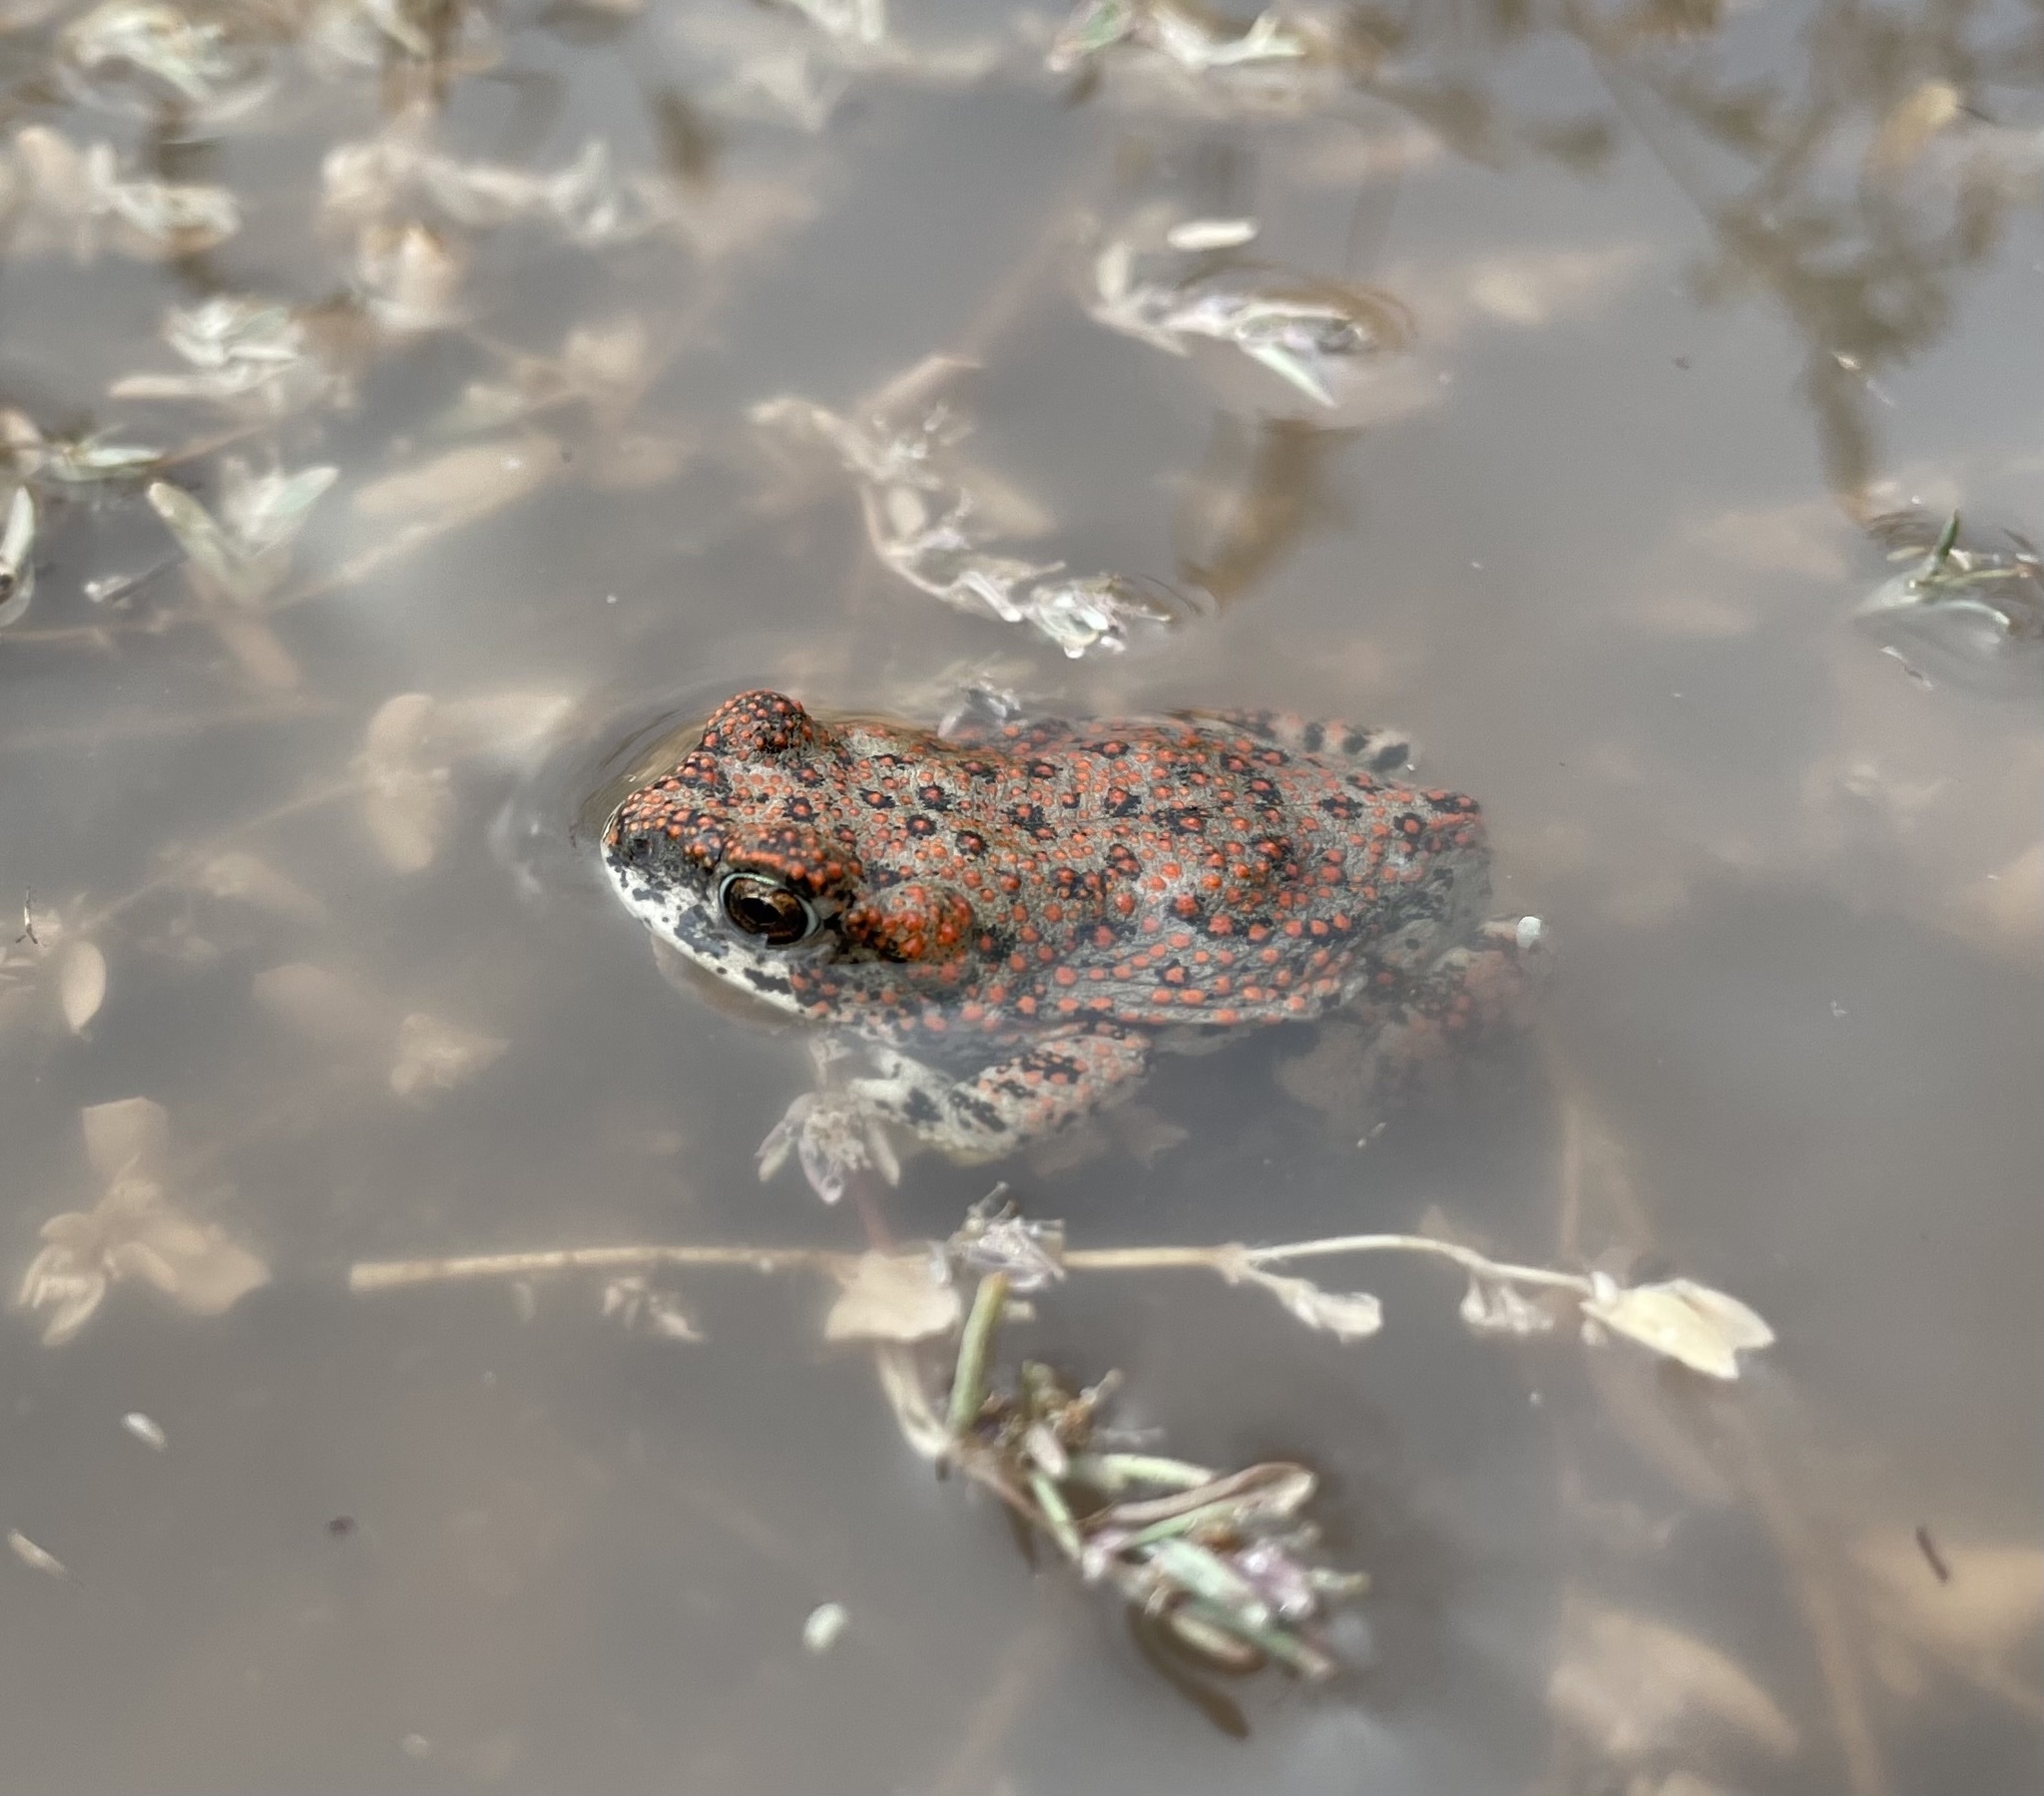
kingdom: Animalia
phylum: Chordata
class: Amphibia
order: Anura
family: Bufonidae
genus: Anaxyrus
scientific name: Anaxyrus punctatus
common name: Red-spotted toad
